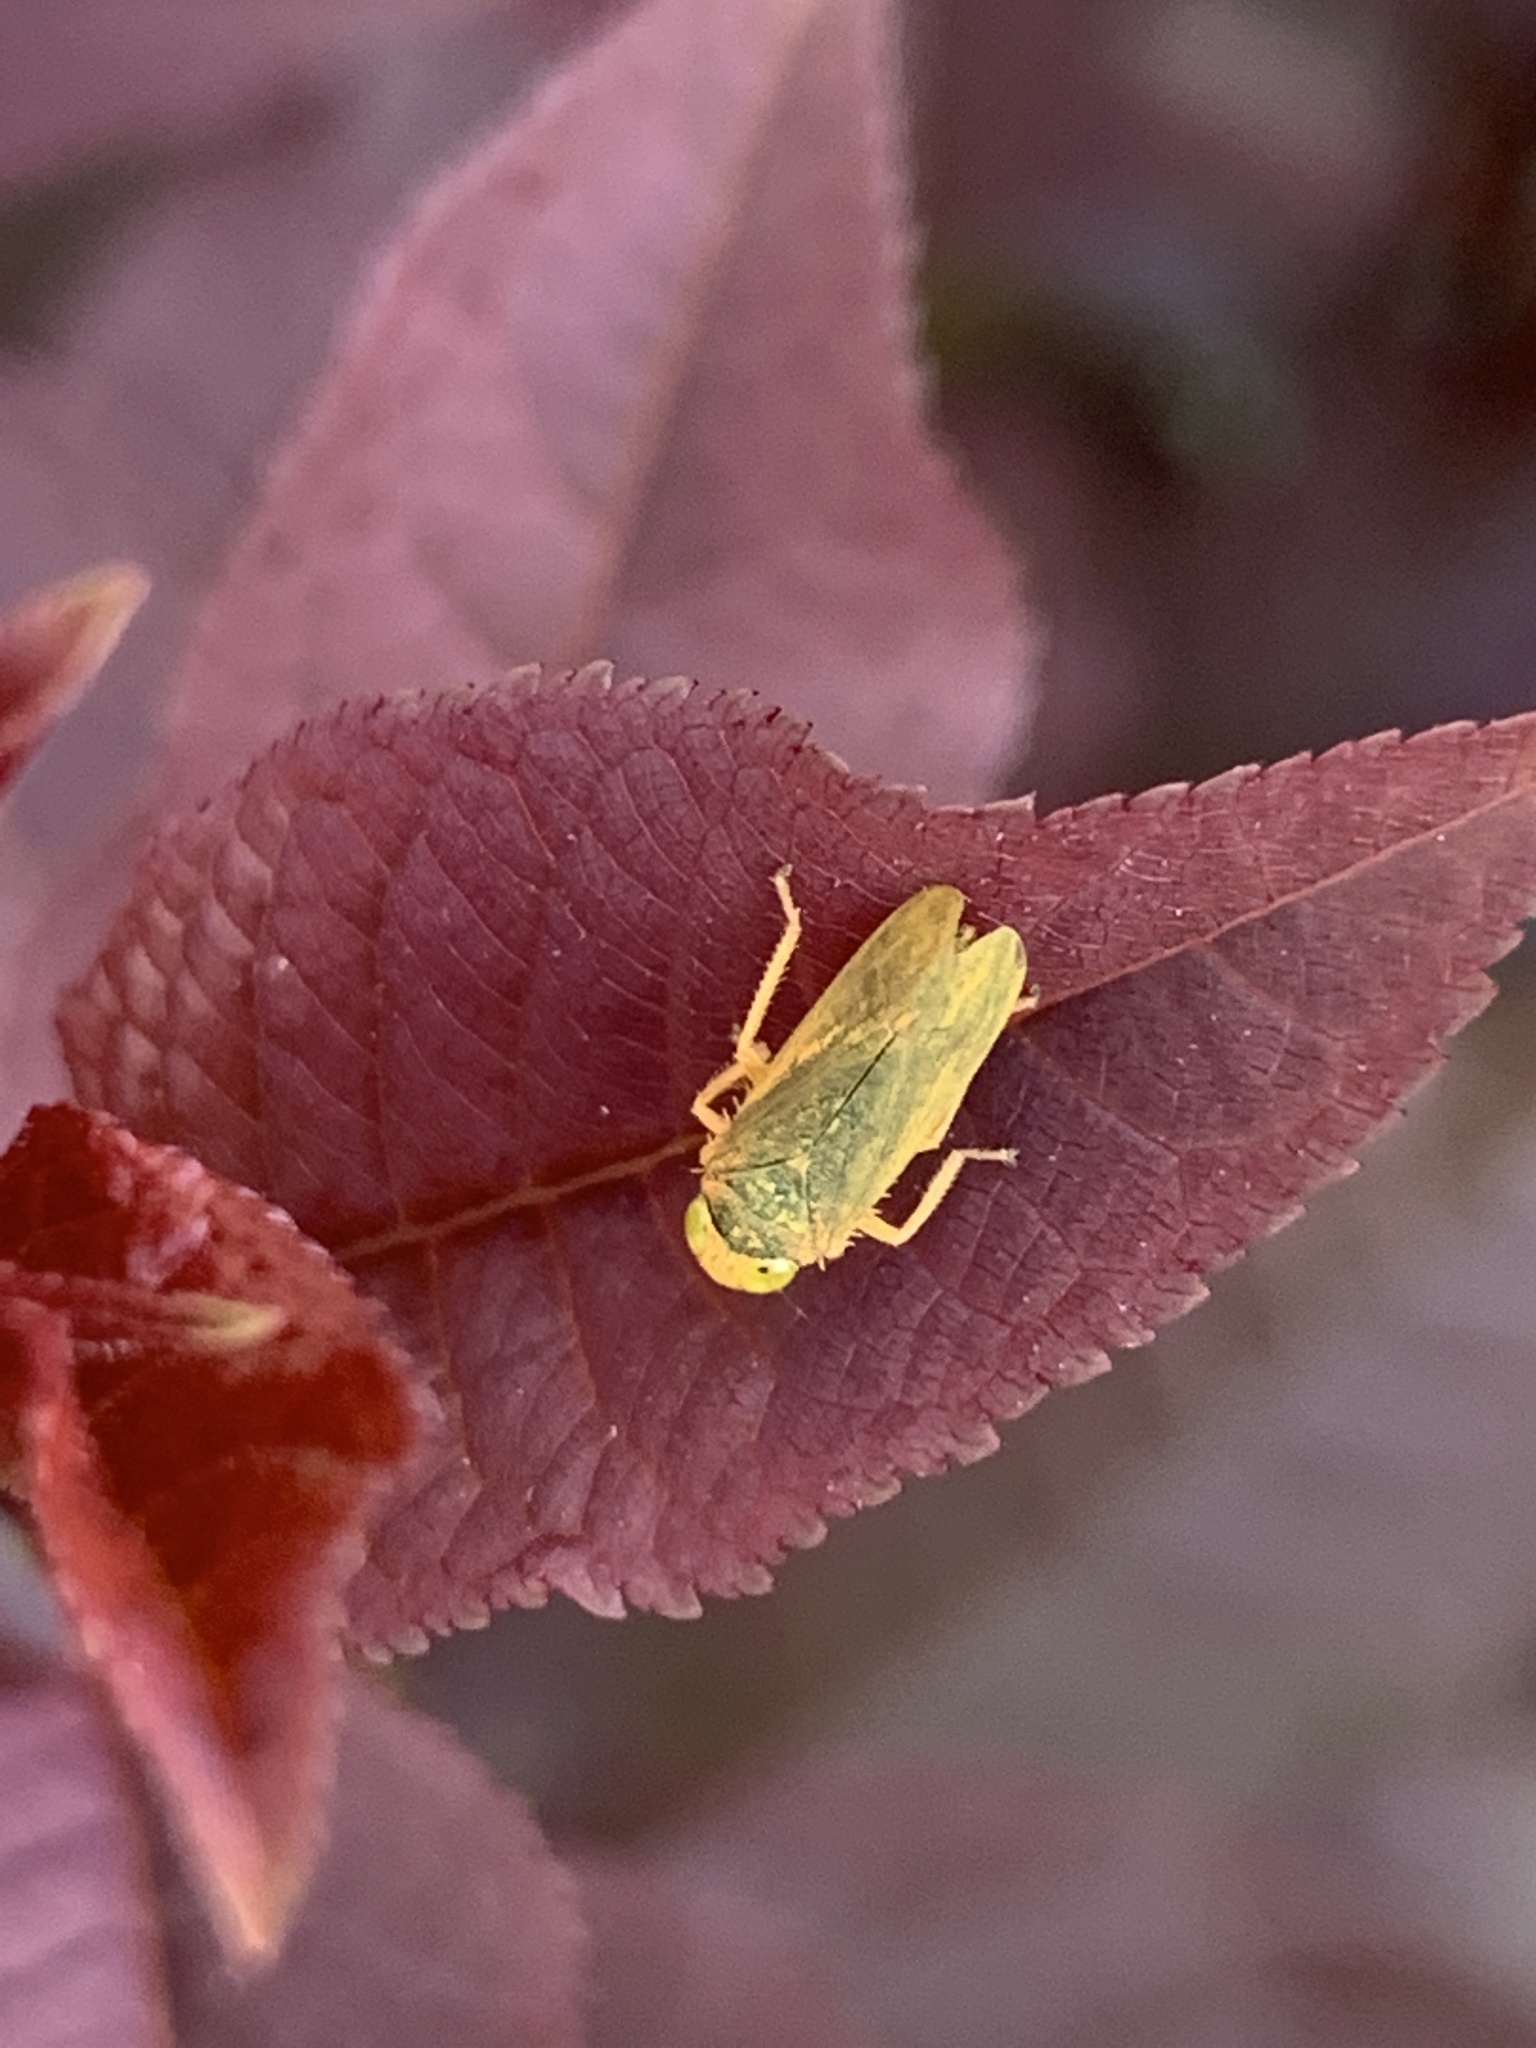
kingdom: Animalia
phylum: Arthropoda
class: Insecta
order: Hemiptera
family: Cicadellidae
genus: Jikradia
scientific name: Jikradia olitoria
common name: Coppery leafhopper
